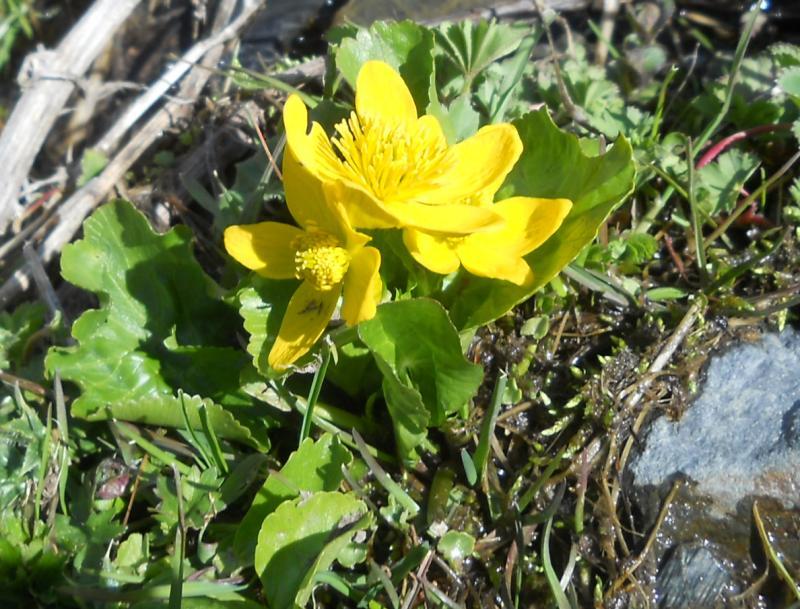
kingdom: Plantae
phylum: Tracheophyta
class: Magnoliopsida
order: Ranunculales
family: Ranunculaceae
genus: Caltha
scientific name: Caltha palustris
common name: Marsh marigold
